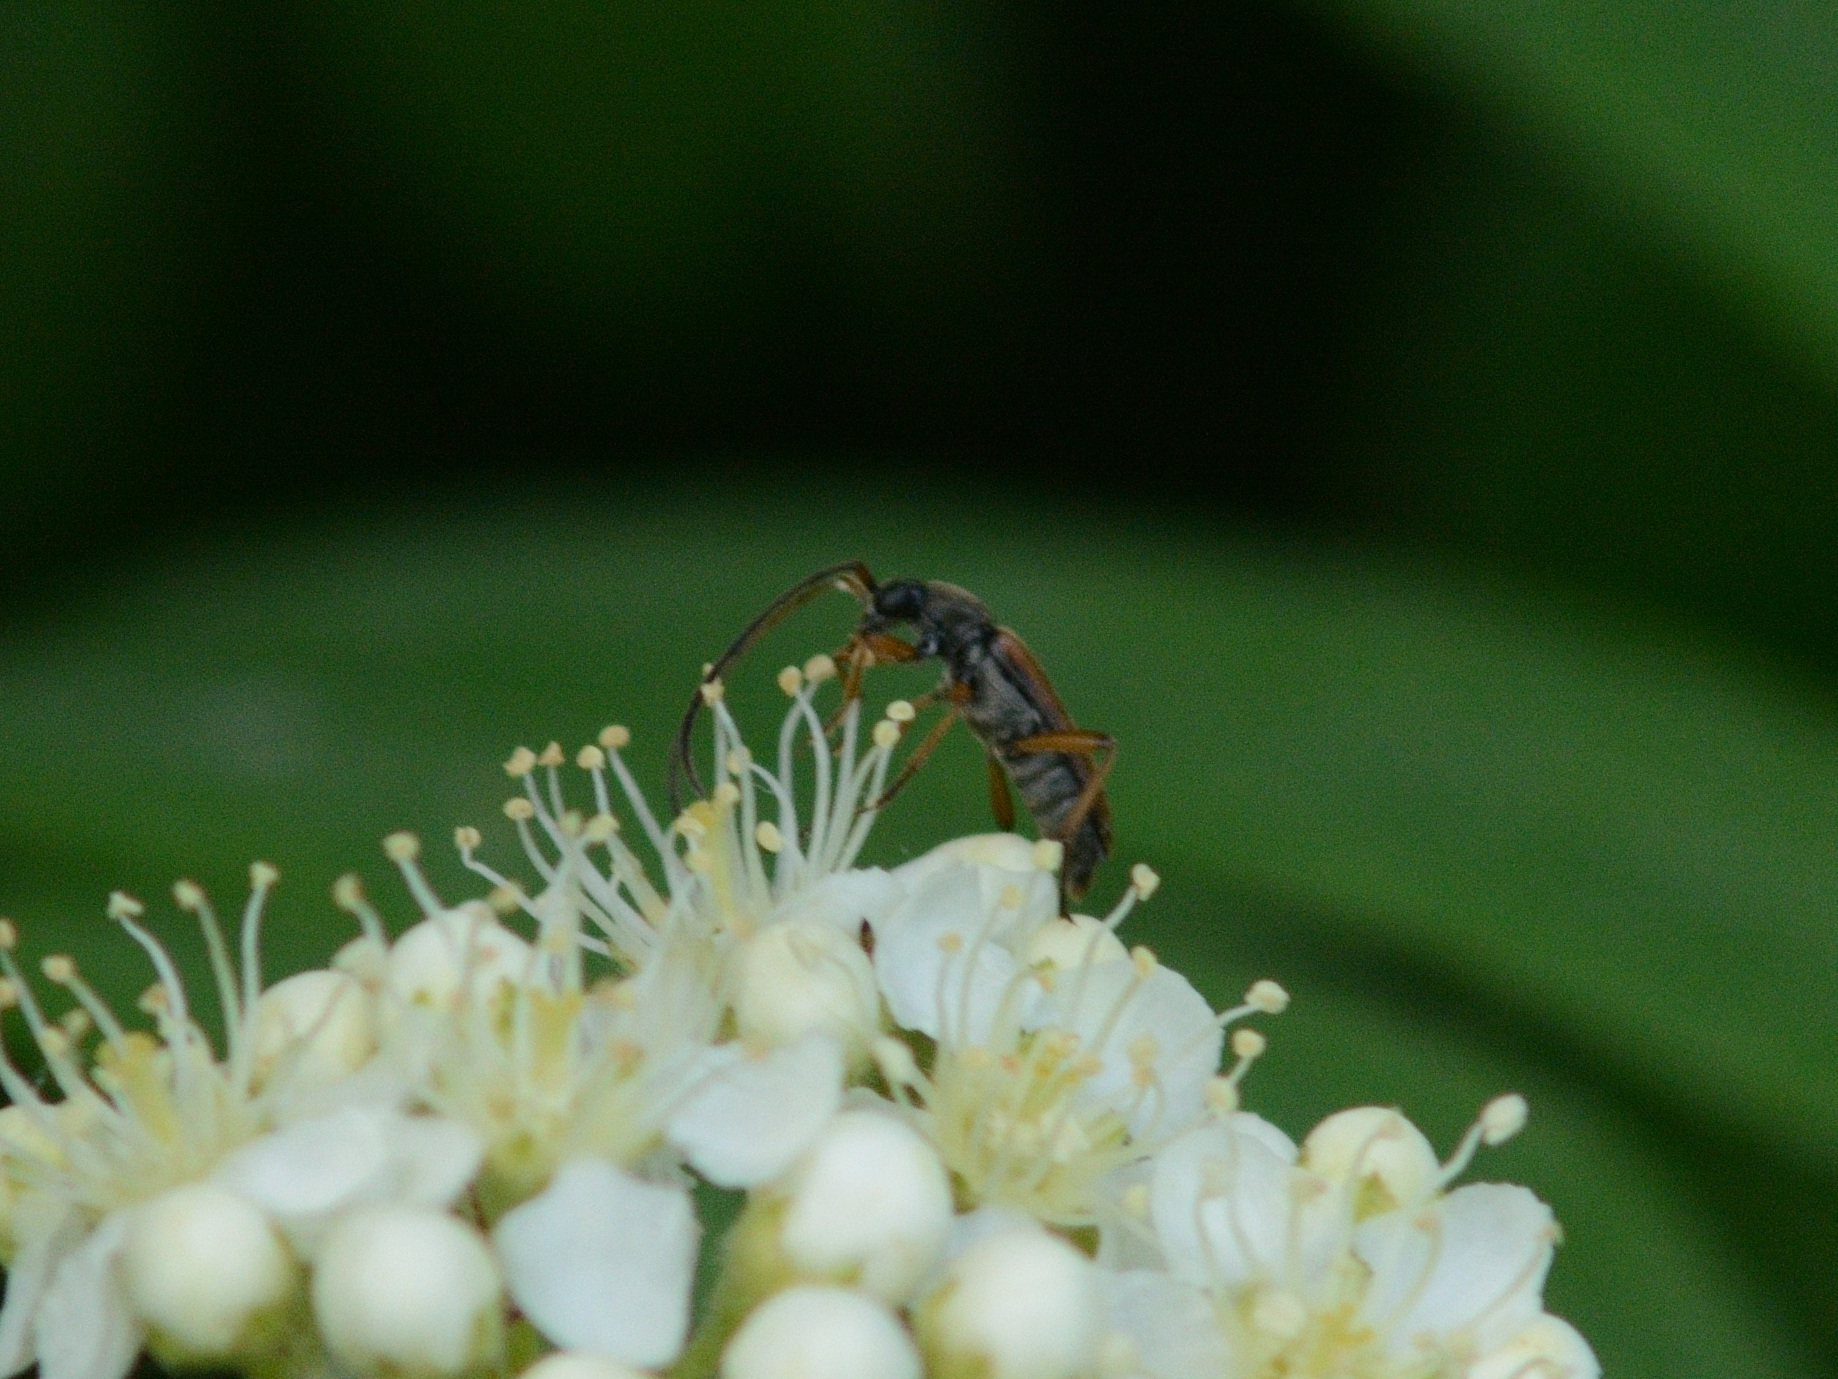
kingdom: Animalia
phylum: Arthropoda
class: Insecta
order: Coleoptera
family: Cerambycidae
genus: Alosterna
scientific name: Alosterna tabacicolor
